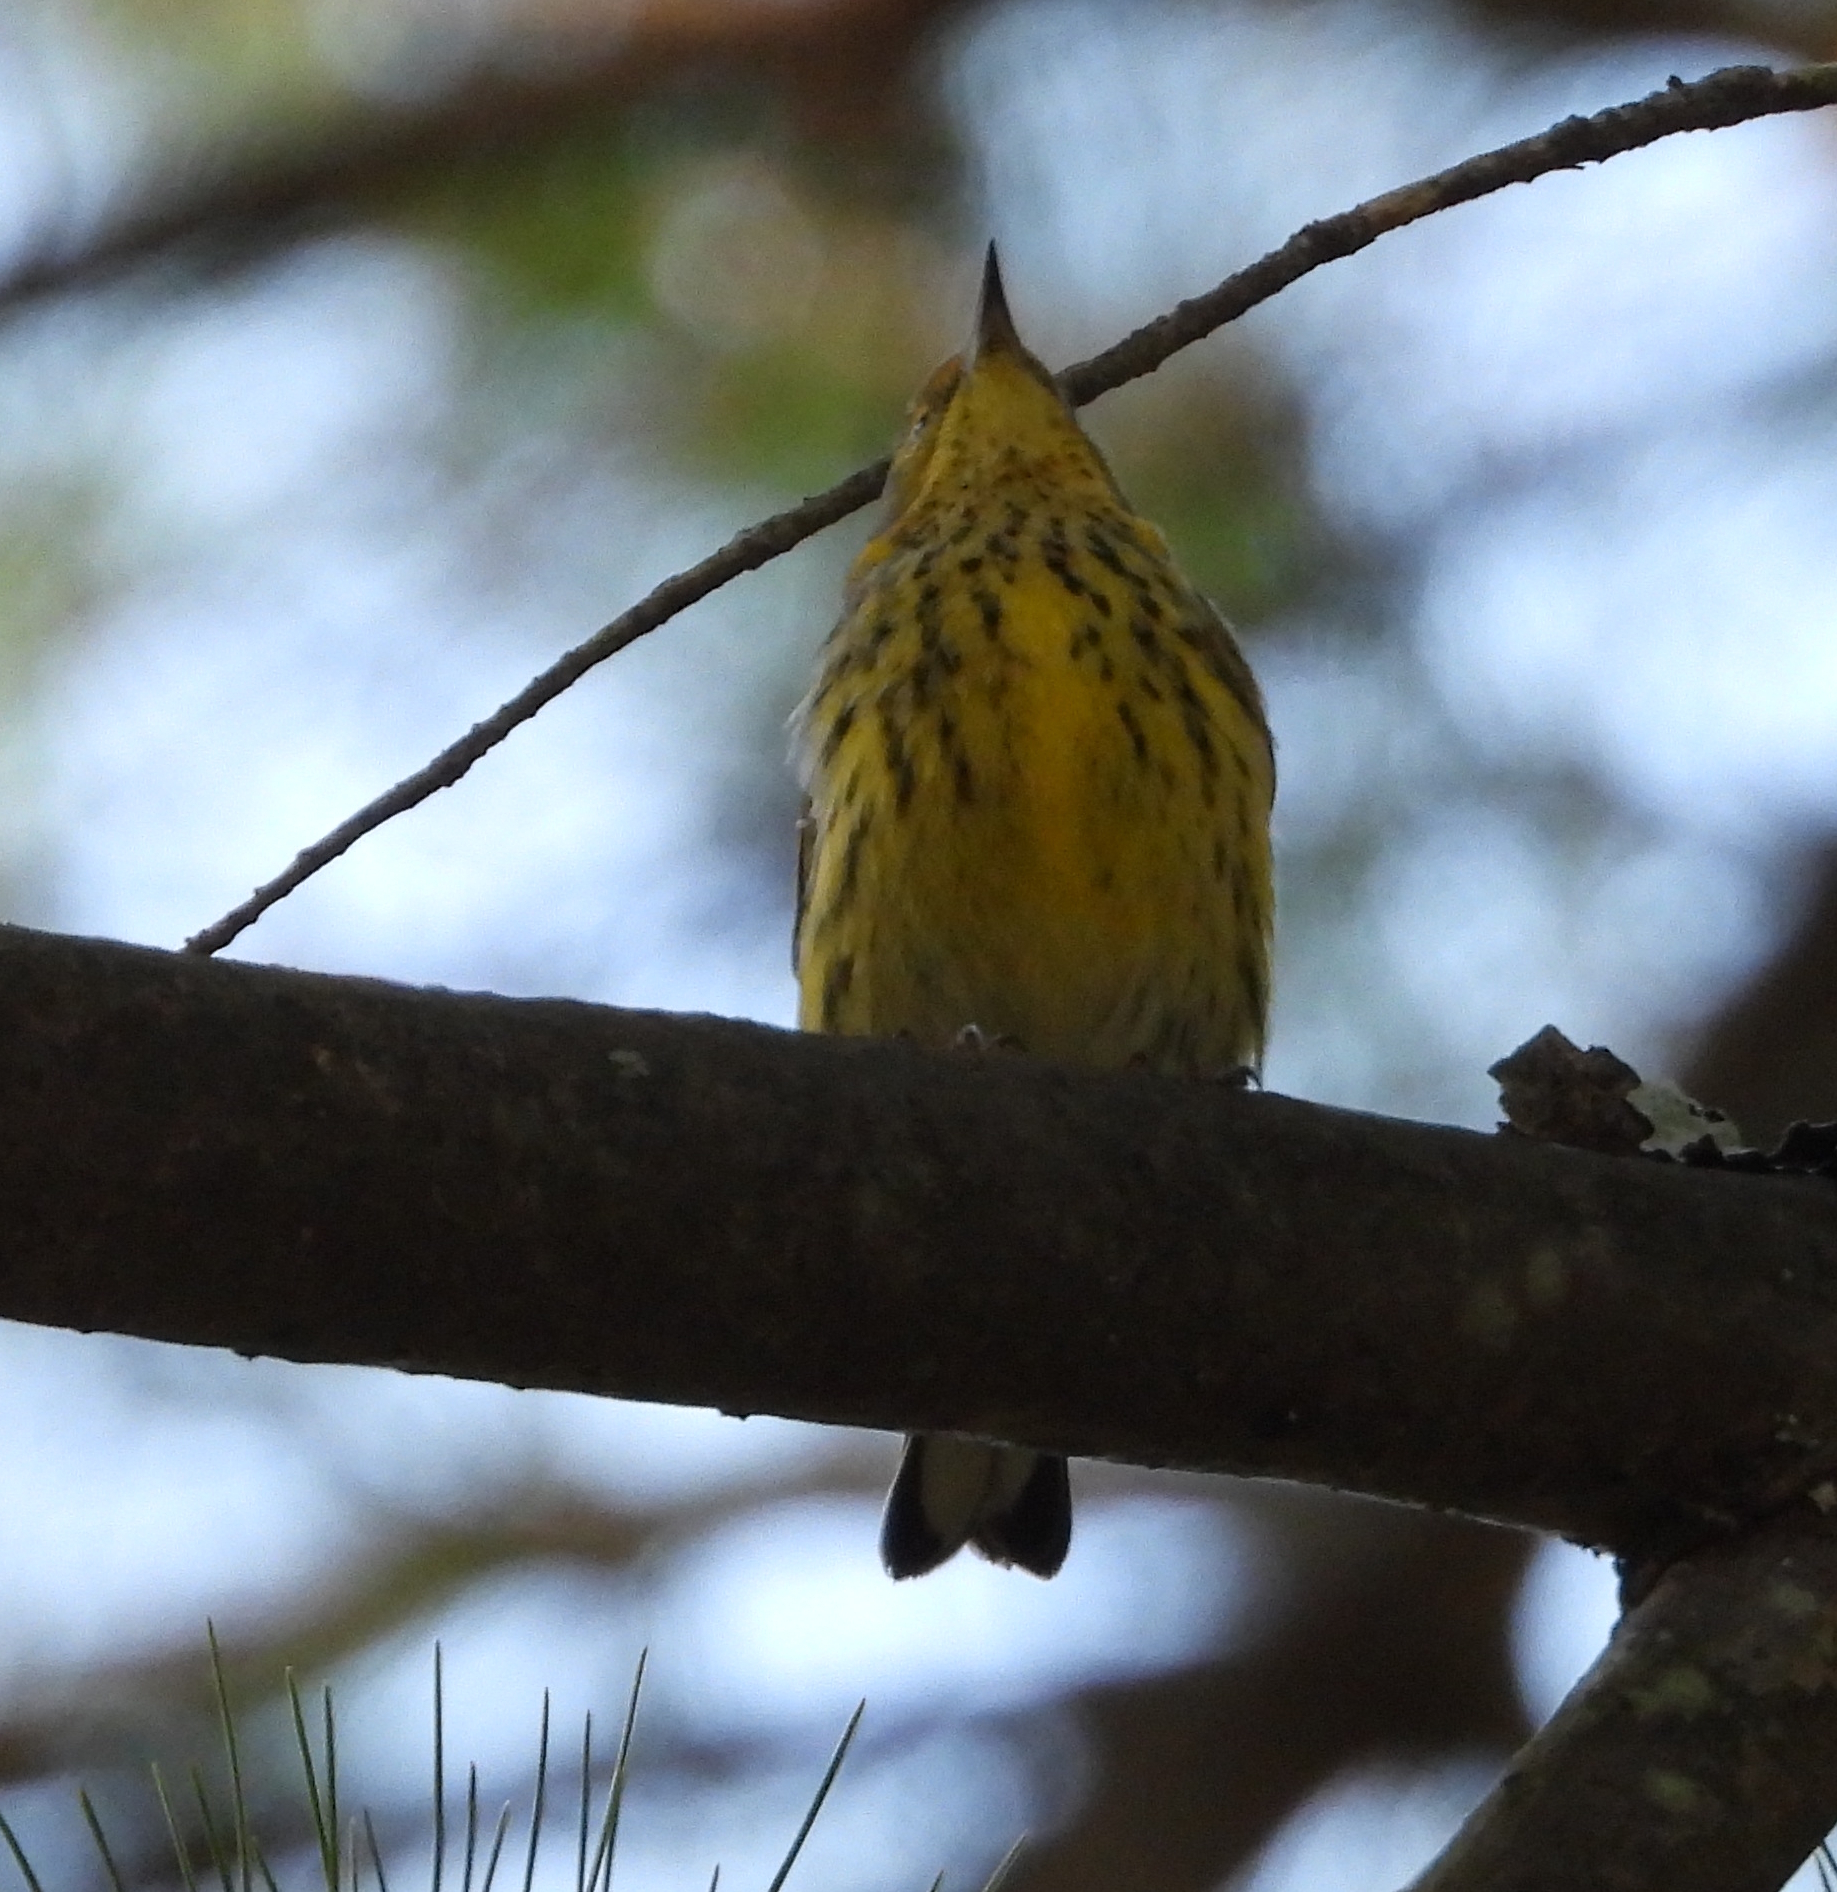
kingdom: Animalia
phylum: Chordata
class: Aves
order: Passeriformes
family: Parulidae
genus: Setophaga
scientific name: Setophaga tigrina
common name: Cape may warbler
